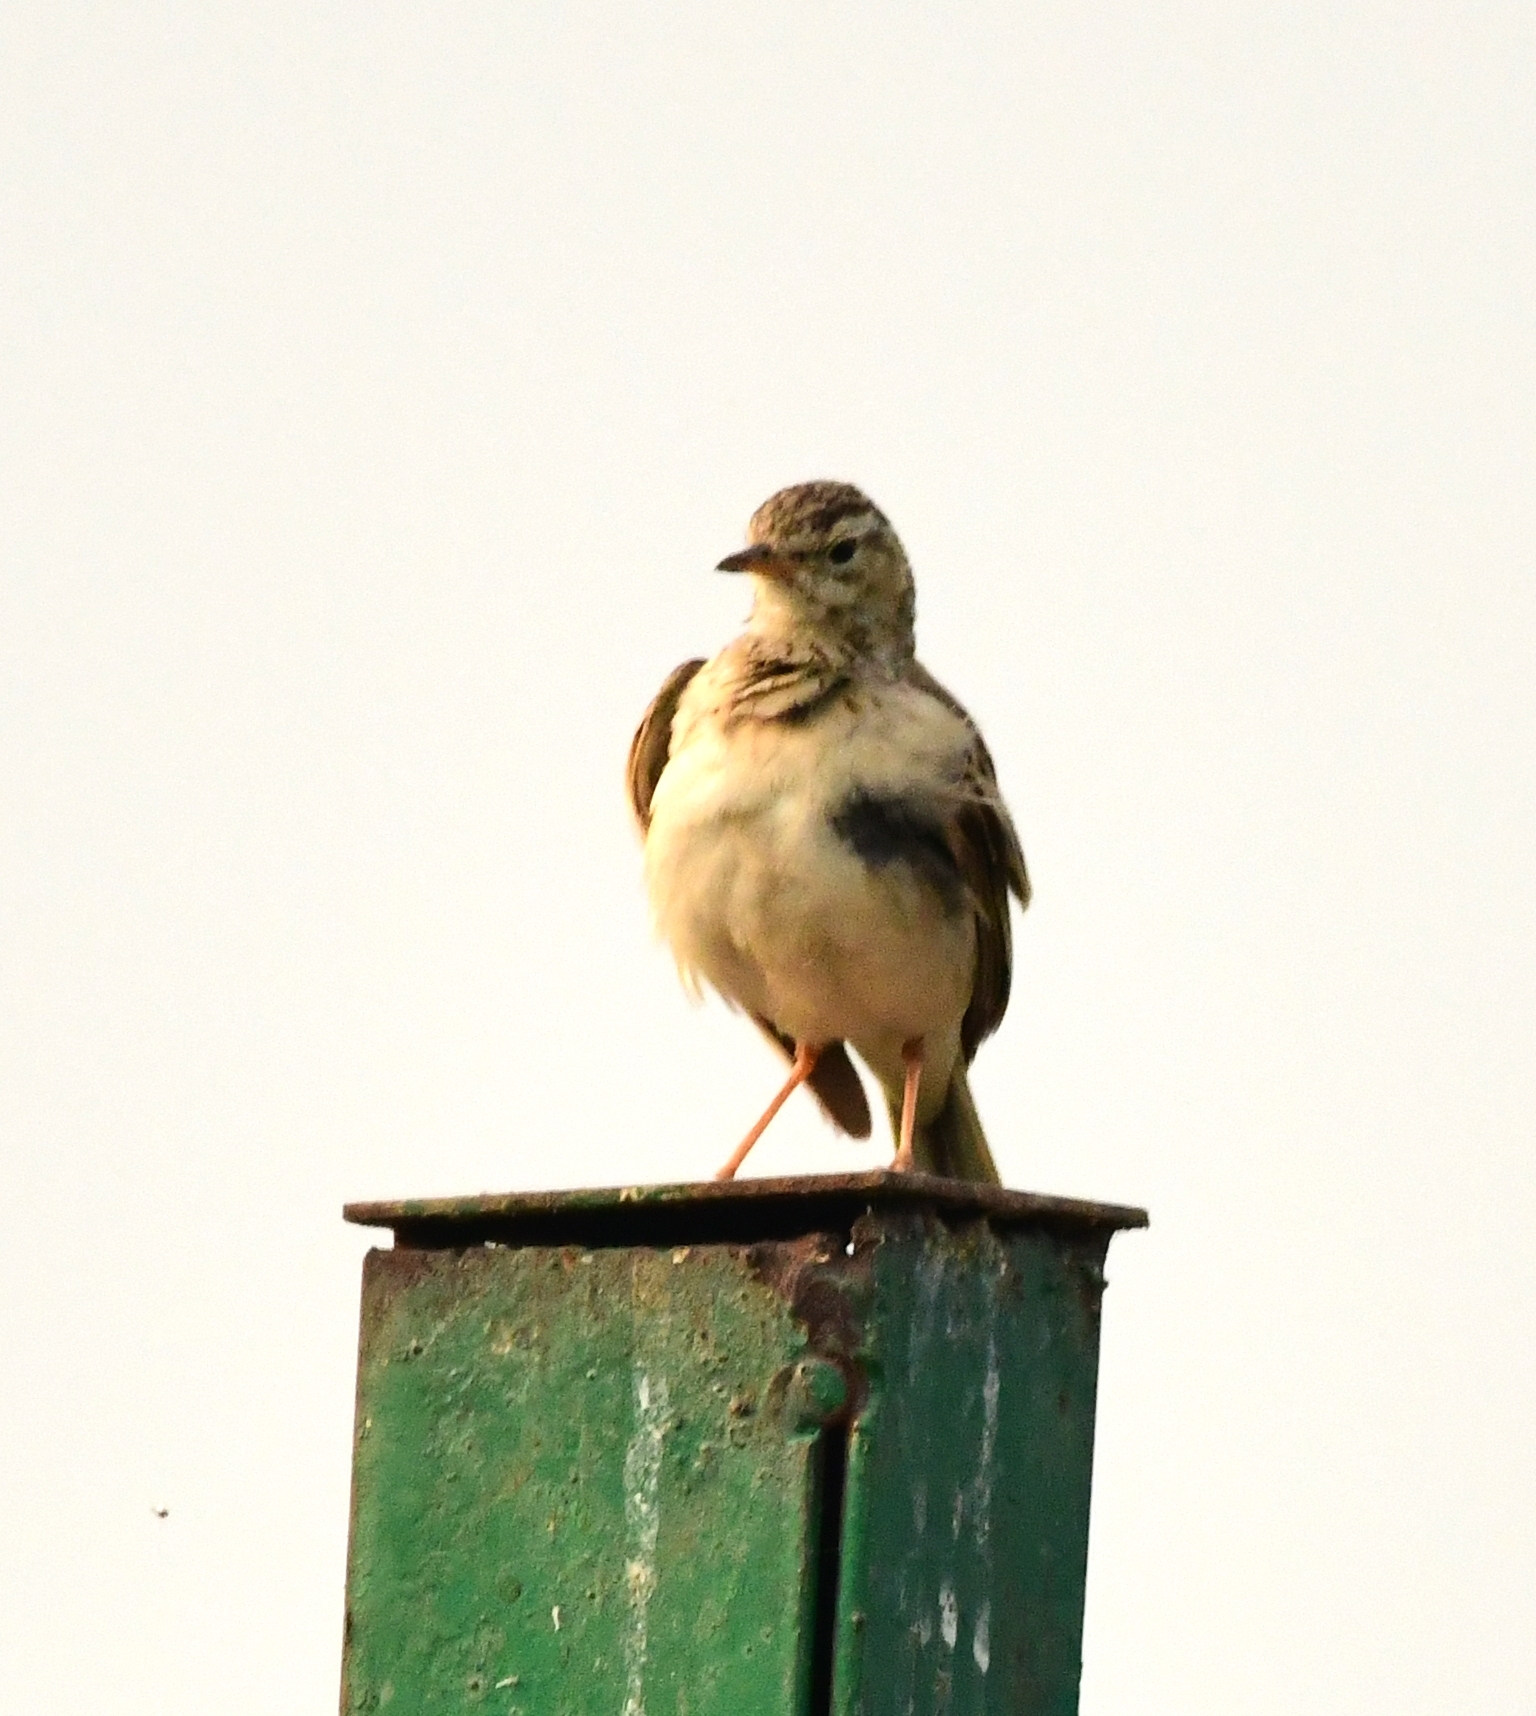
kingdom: Animalia
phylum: Chordata
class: Aves
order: Passeriformes
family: Motacillidae
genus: Anthus
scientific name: Anthus rufulus
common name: Paddyfield pipit
